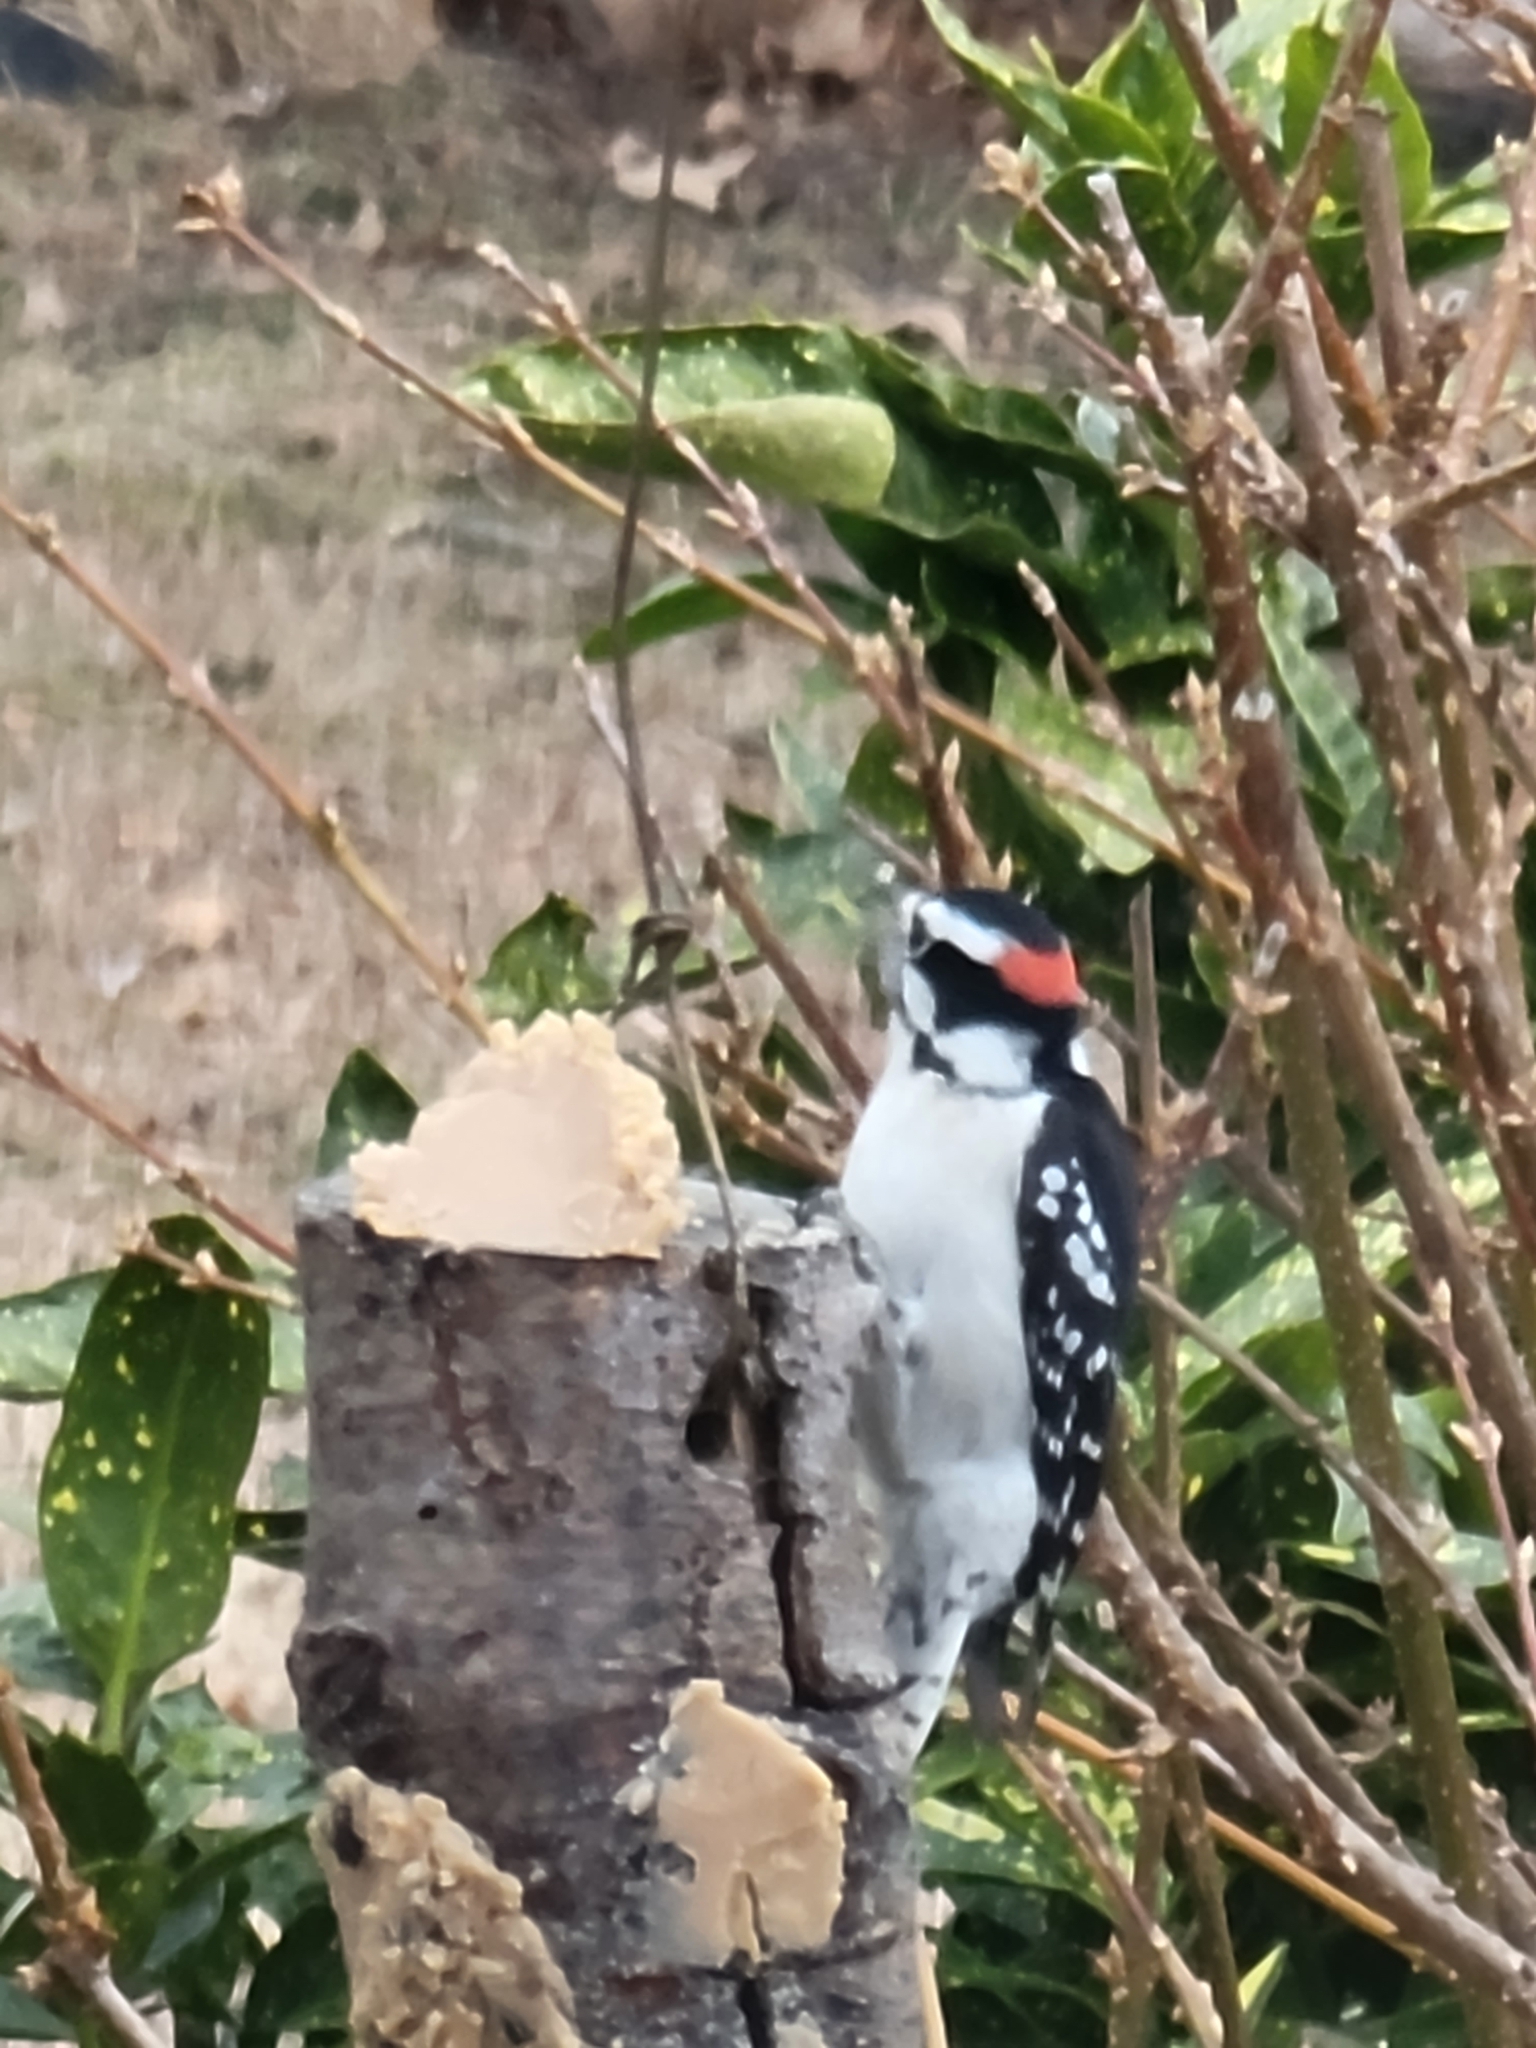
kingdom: Animalia
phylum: Chordata
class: Aves
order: Piciformes
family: Picidae
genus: Dryobates
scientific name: Dryobates pubescens
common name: Downy woodpecker
